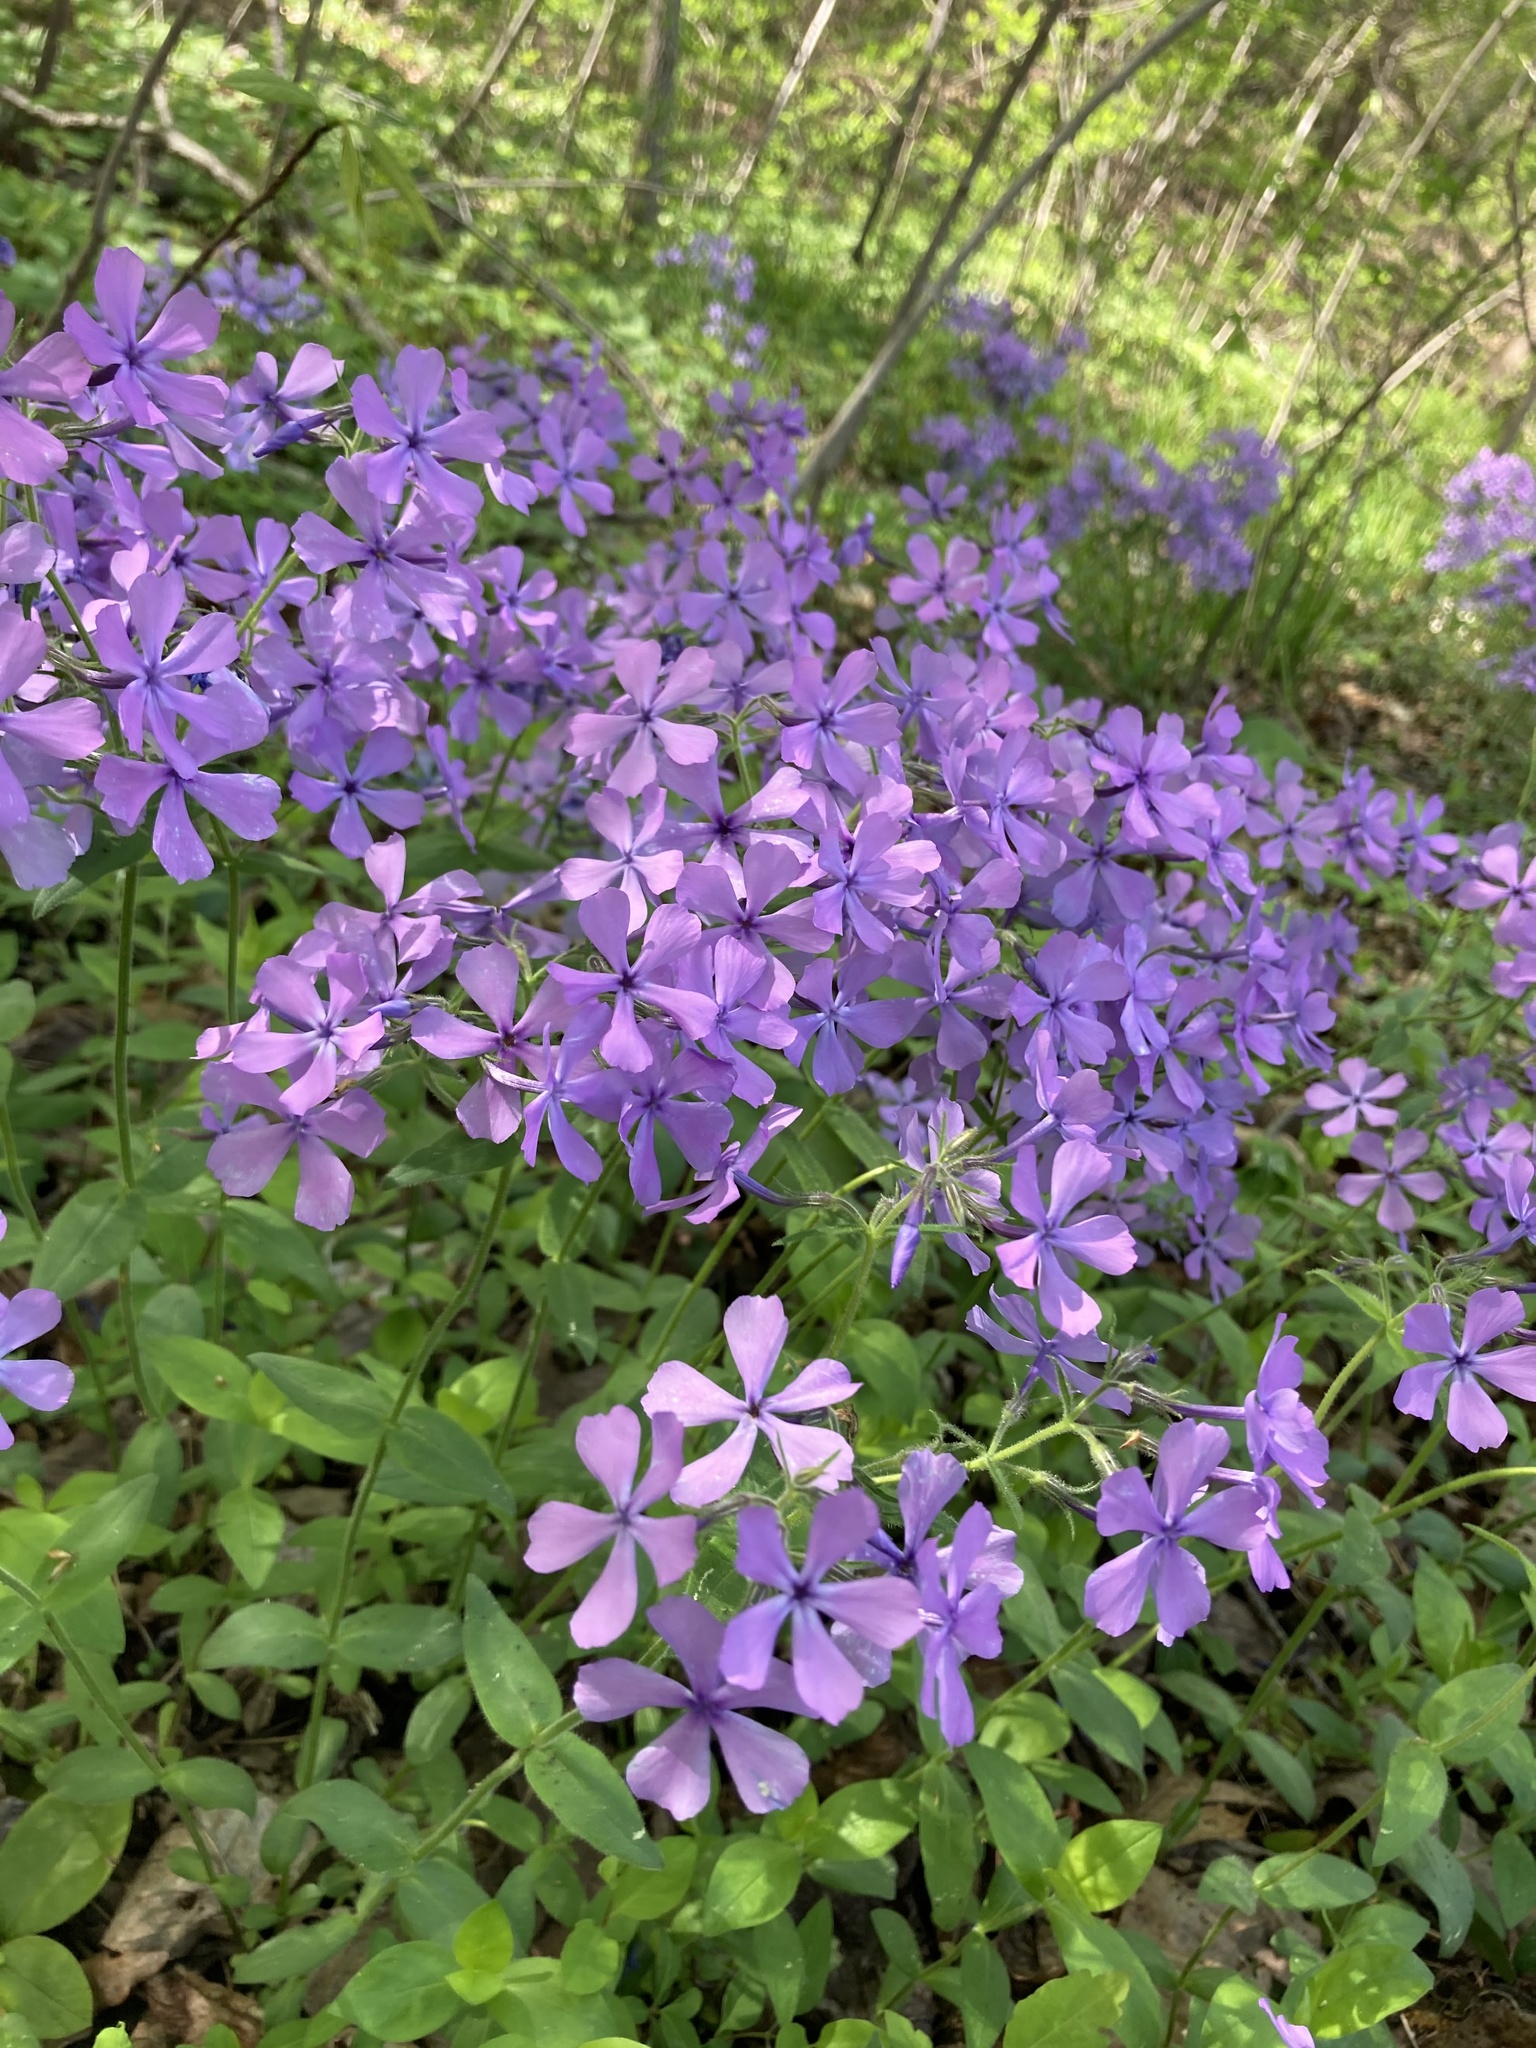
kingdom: Plantae
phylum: Tracheophyta
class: Magnoliopsida
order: Ericales
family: Polemoniaceae
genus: Phlox
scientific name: Phlox divaricata
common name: Blue phlox
